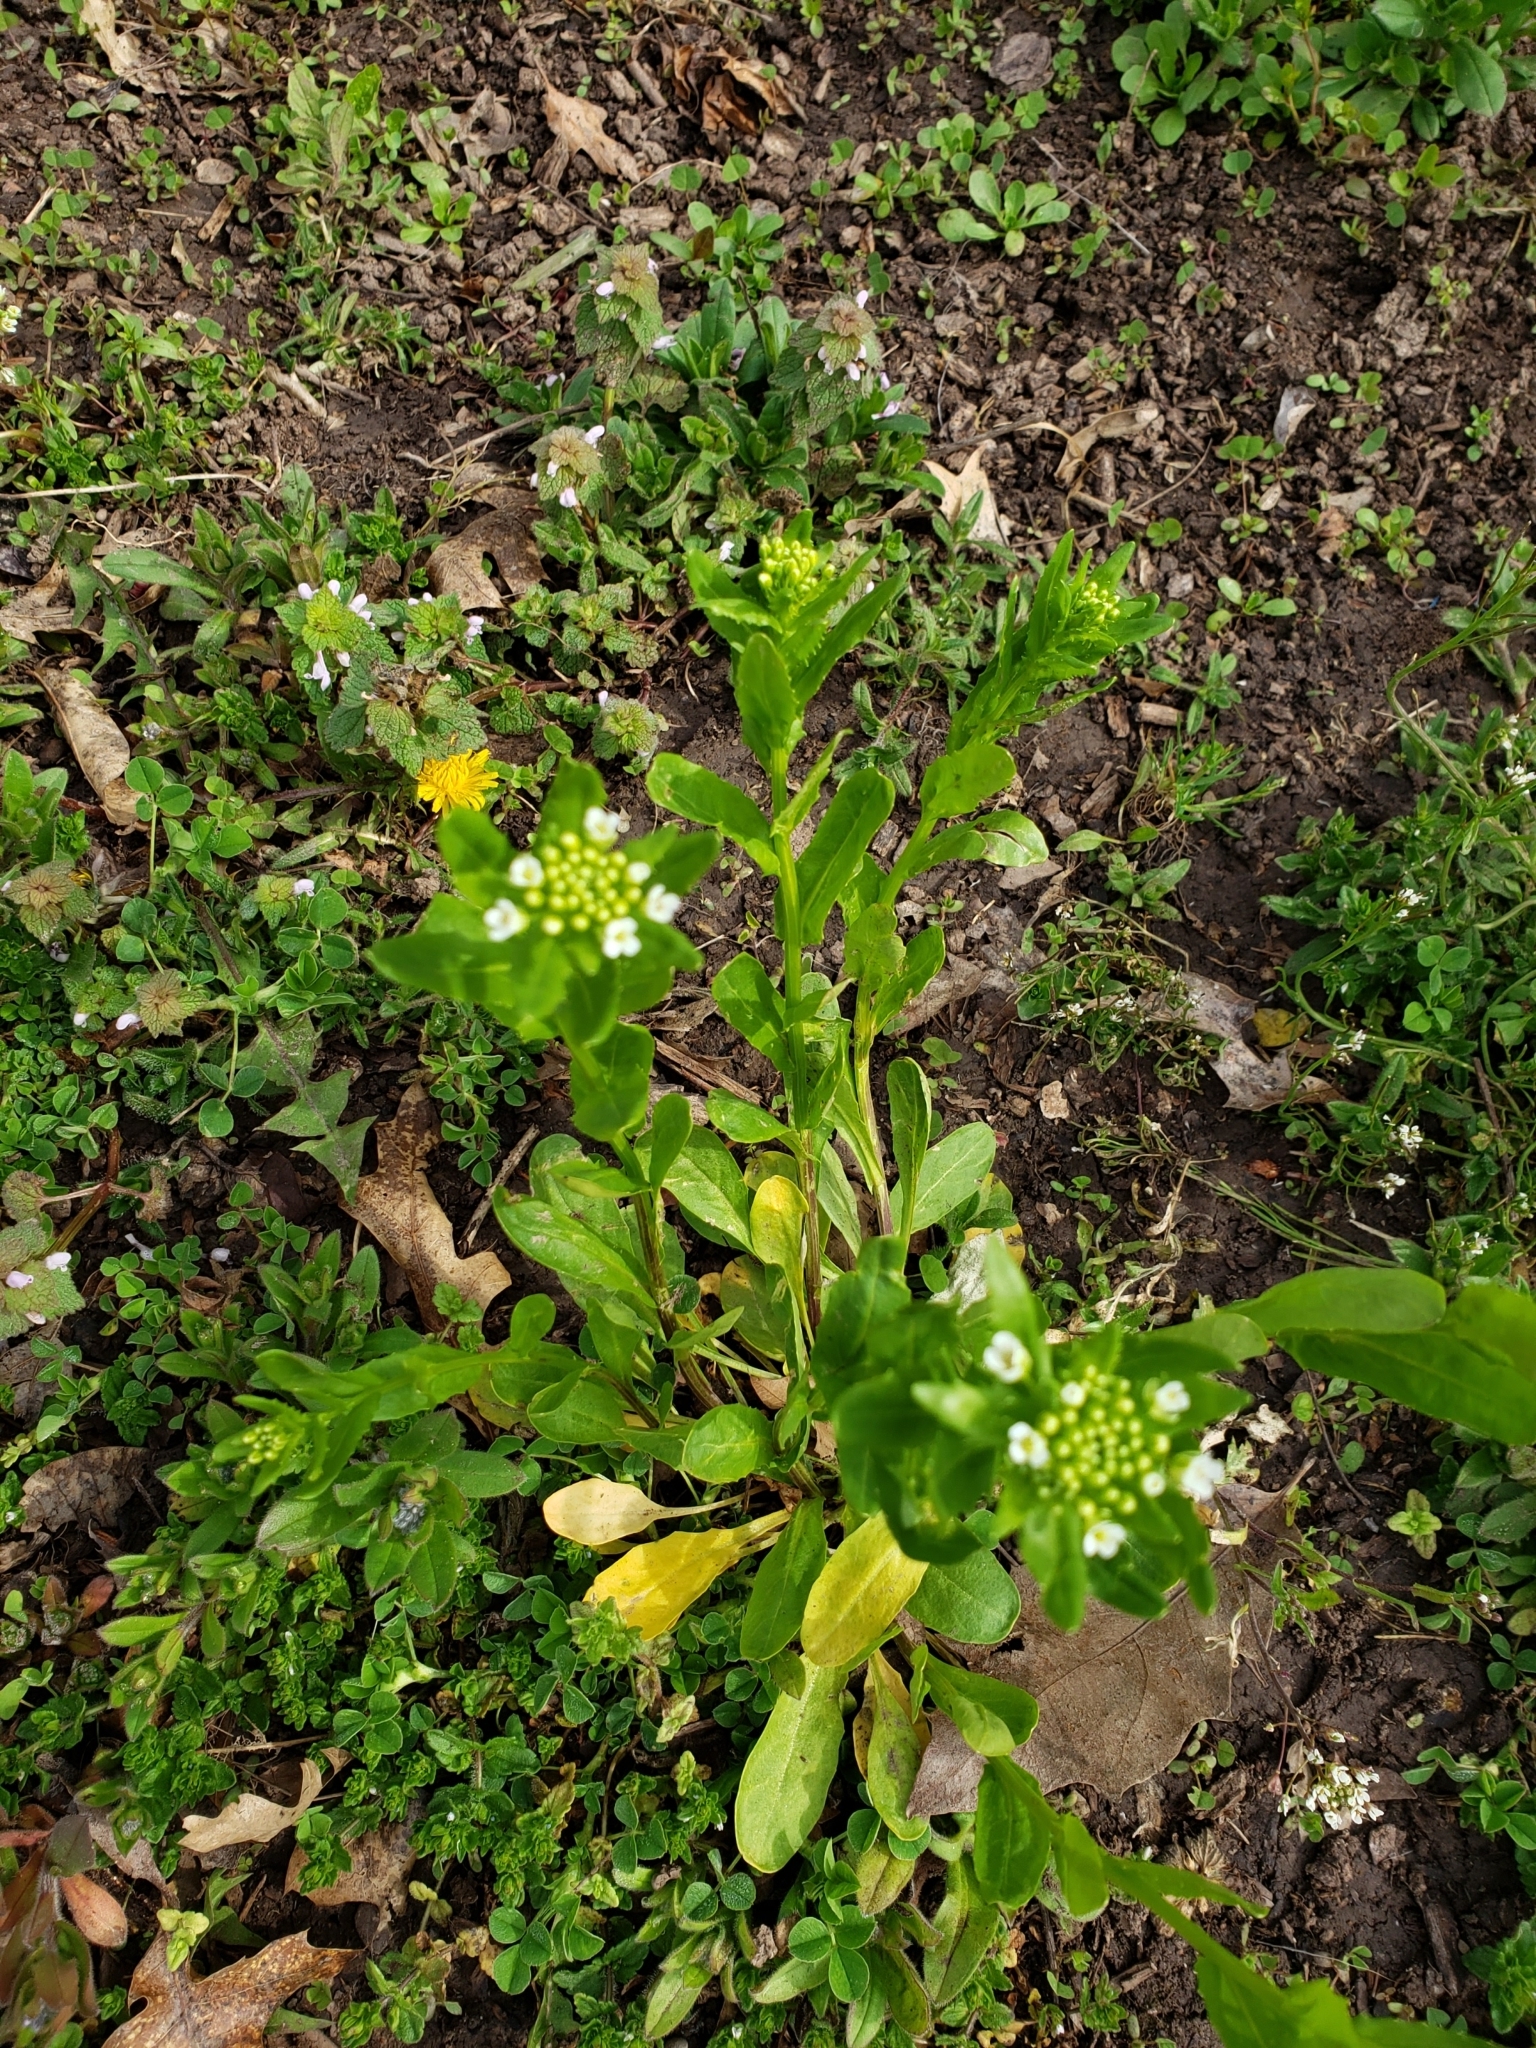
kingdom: Plantae
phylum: Tracheophyta
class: Magnoliopsida
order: Brassicales
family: Brassicaceae
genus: Thlaspi
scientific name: Thlaspi arvense
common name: Field pennycress
